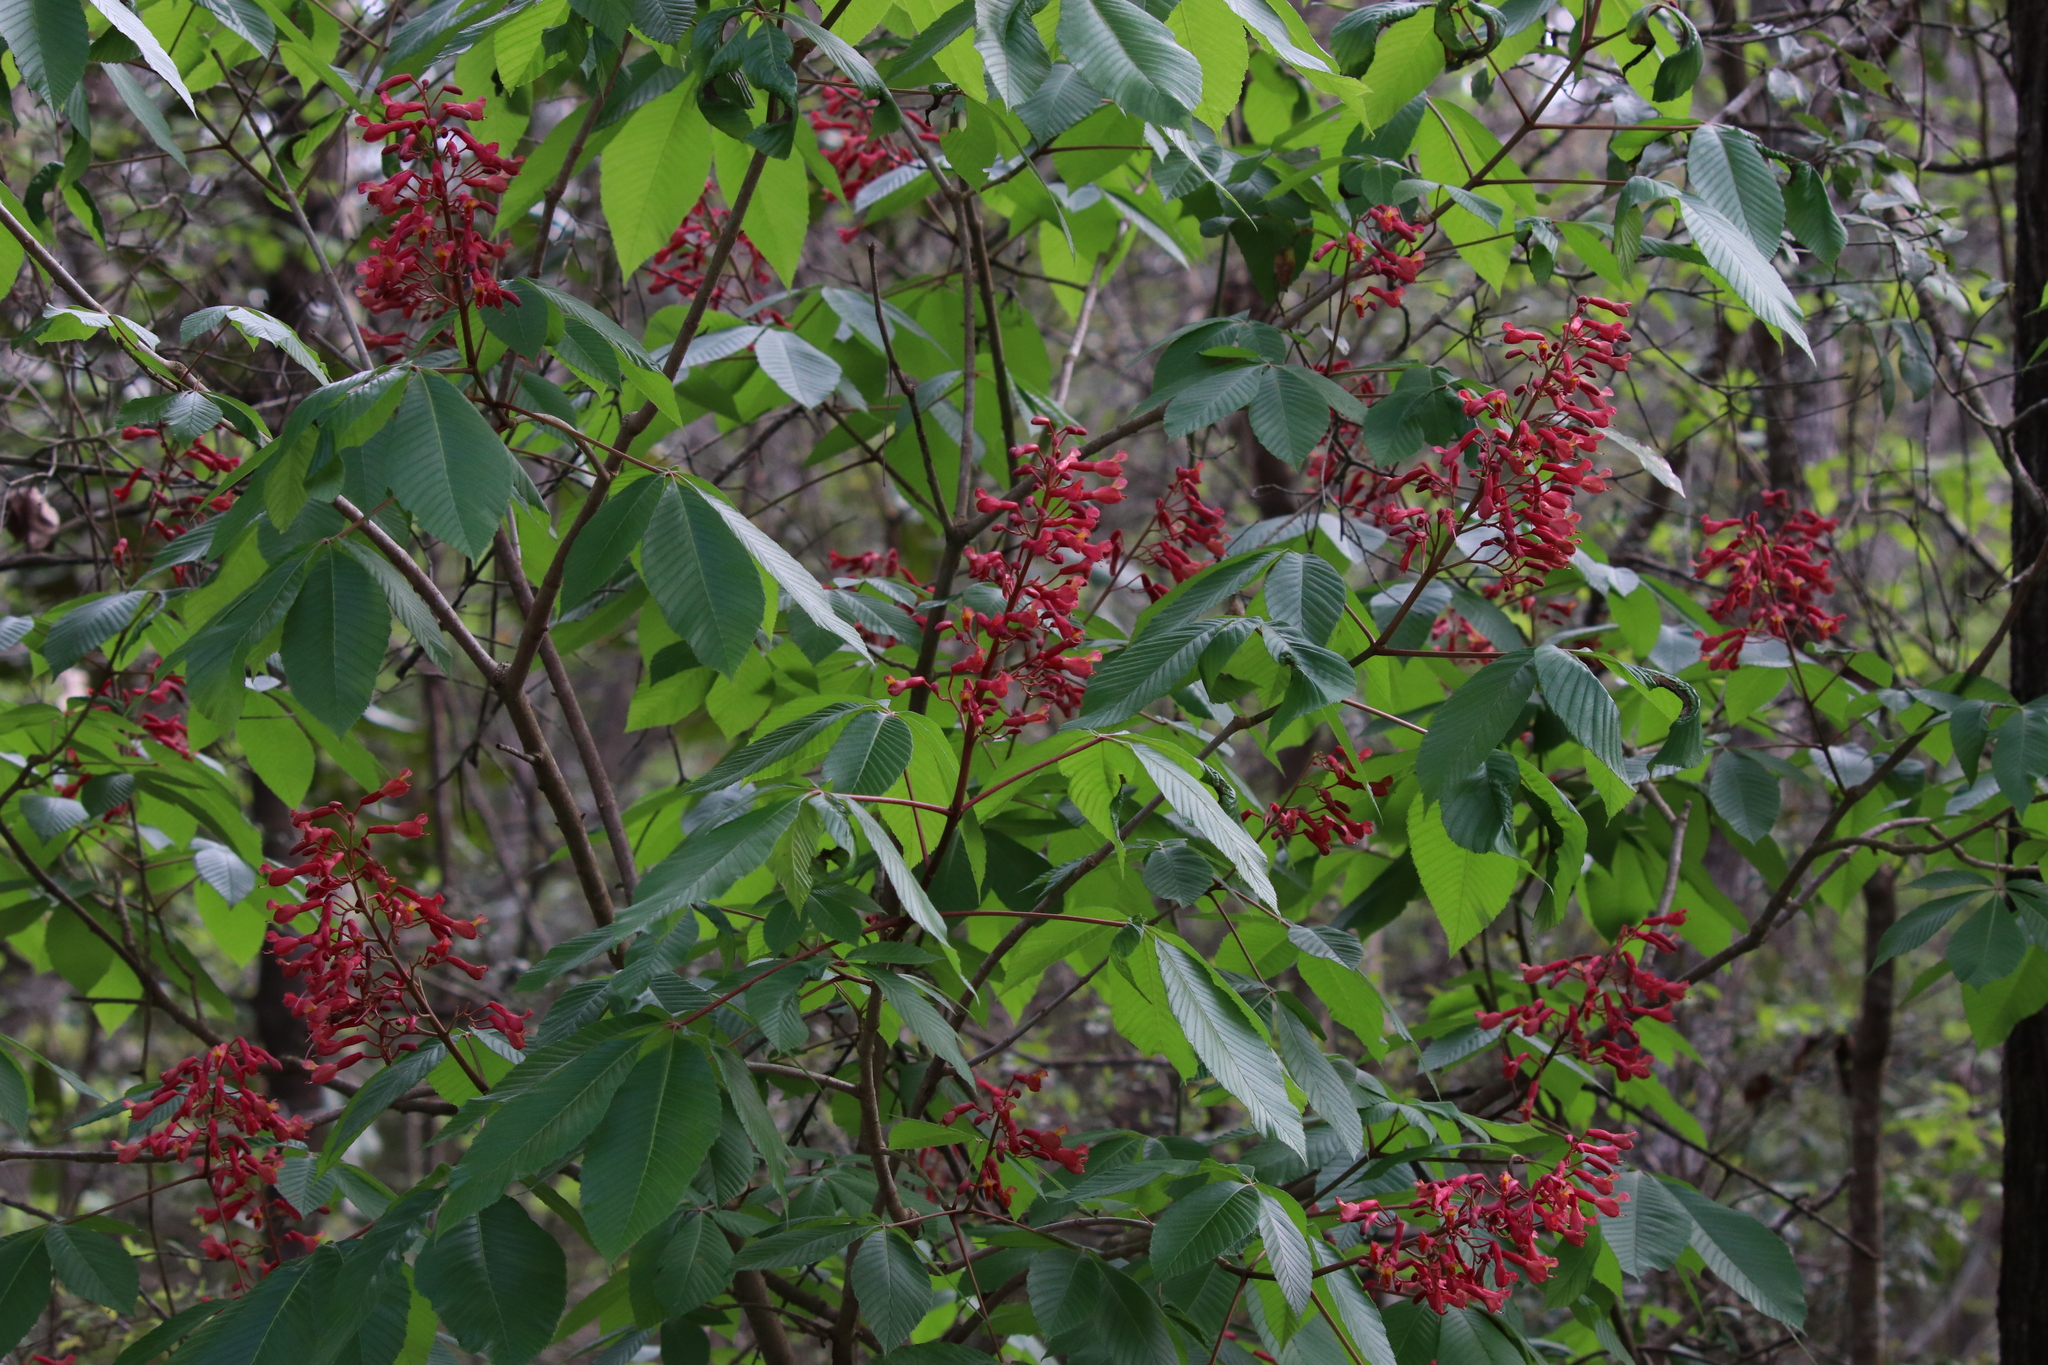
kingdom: Plantae
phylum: Tracheophyta
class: Magnoliopsida
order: Sapindales
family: Sapindaceae
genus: Aesculus
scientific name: Aesculus pavia
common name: Red buckeye
